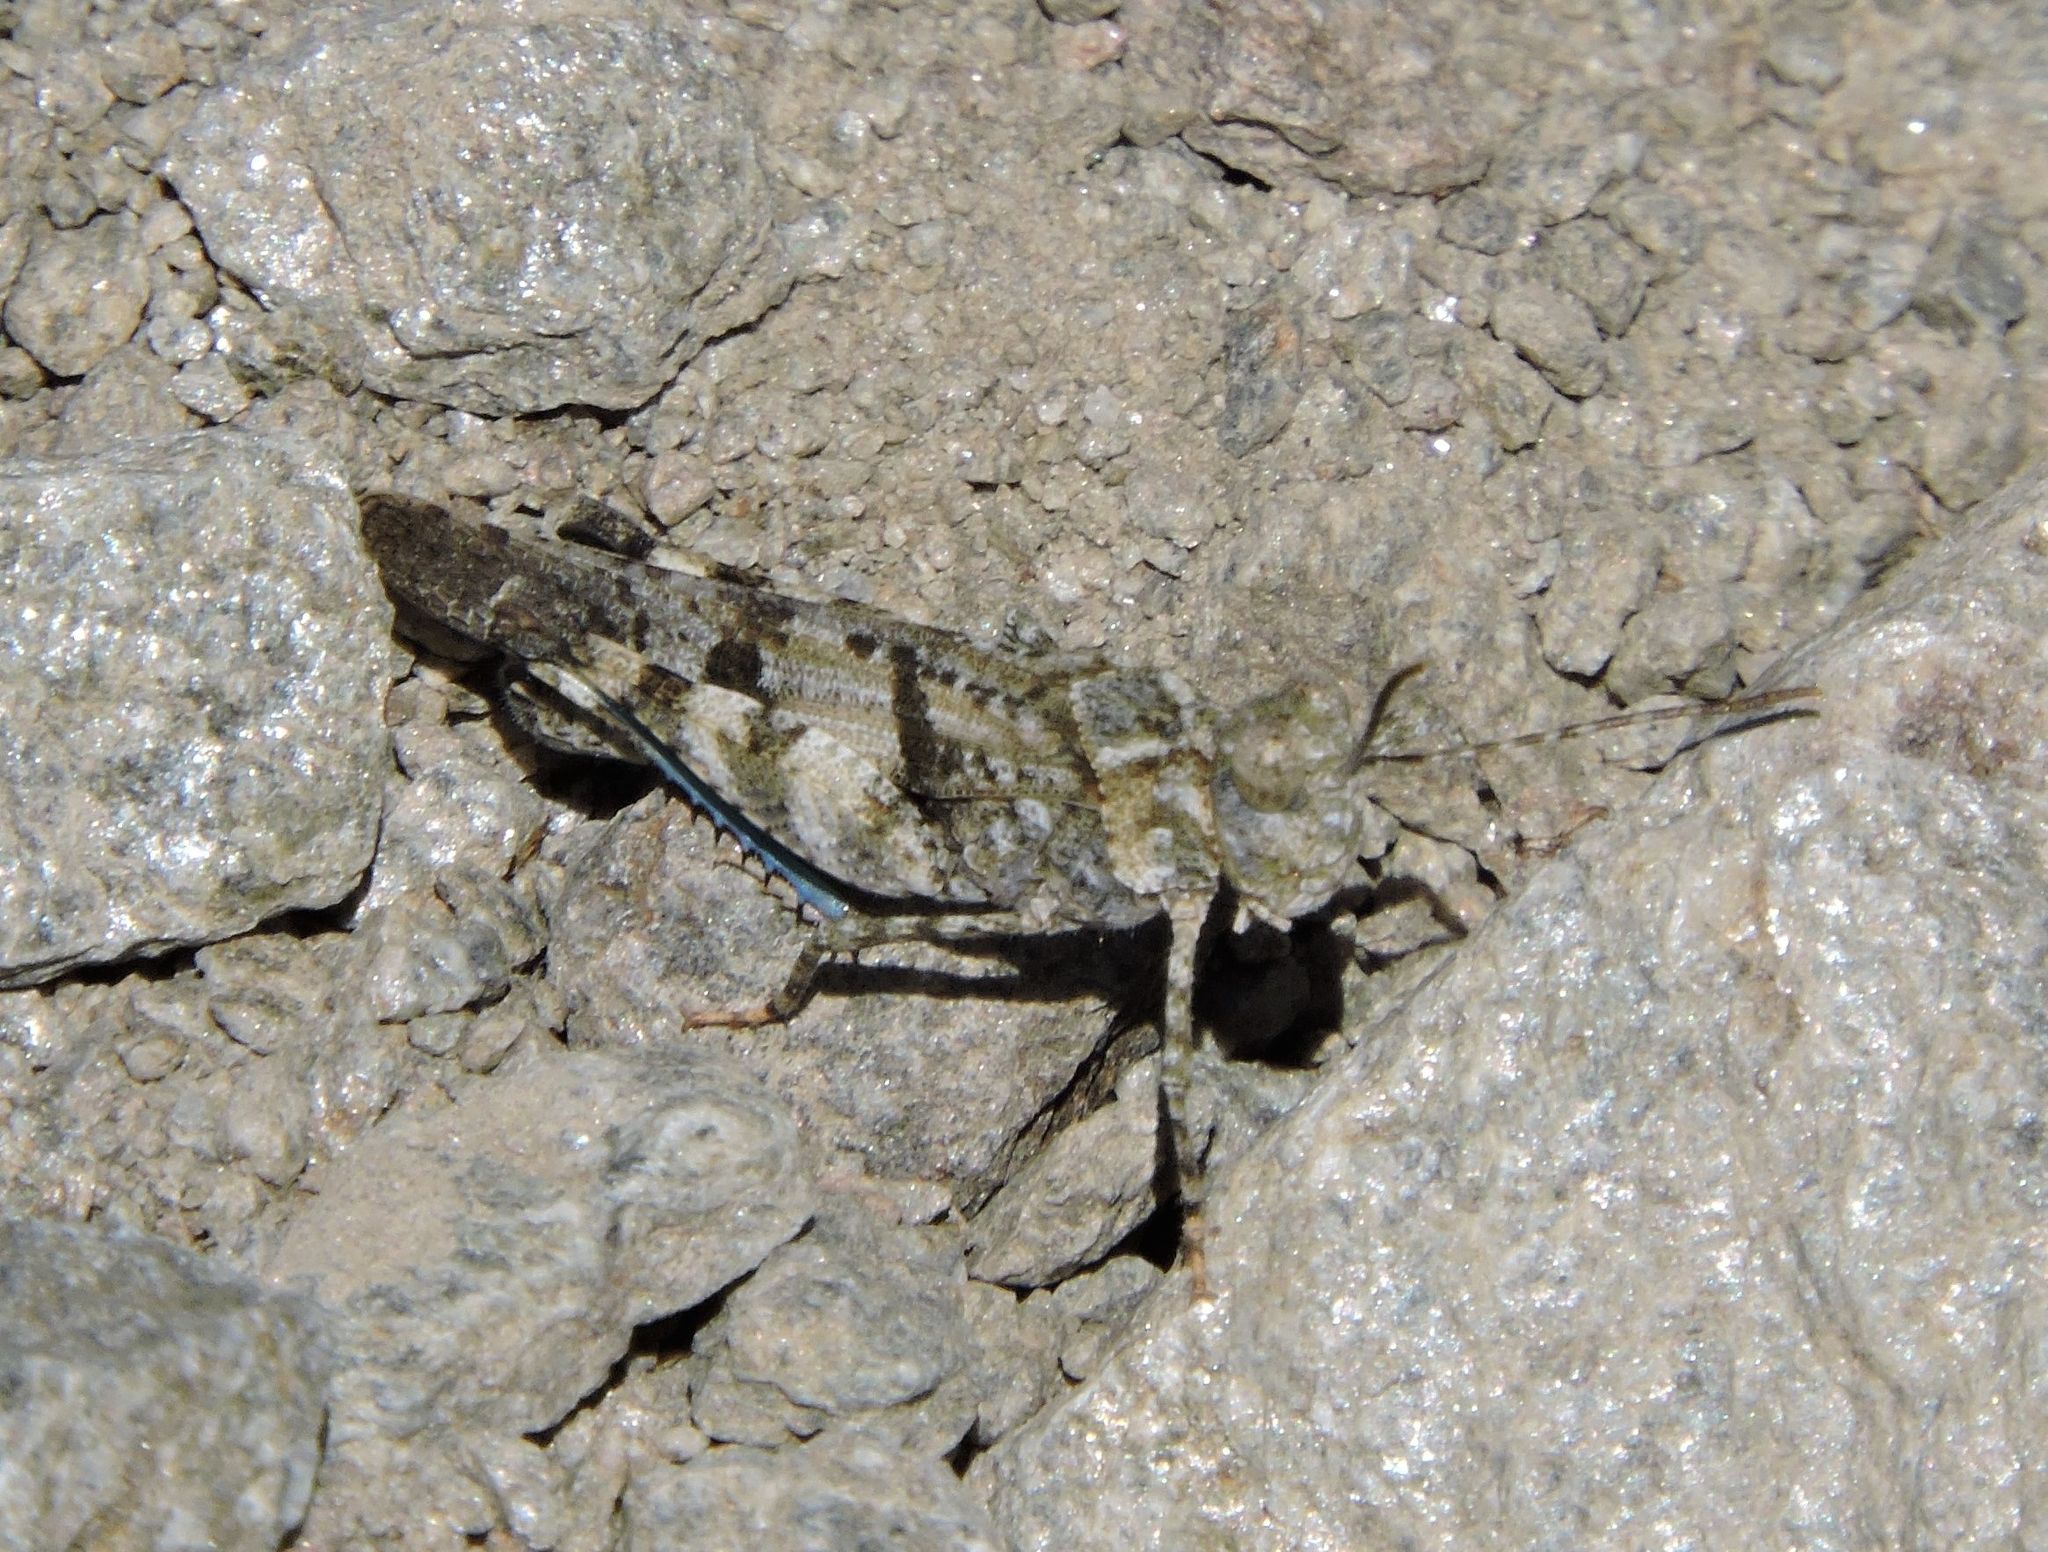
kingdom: Animalia
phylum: Arthropoda
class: Insecta
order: Orthoptera
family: Acrididae
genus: Trimerotropis
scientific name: Trimerotropis fontana
